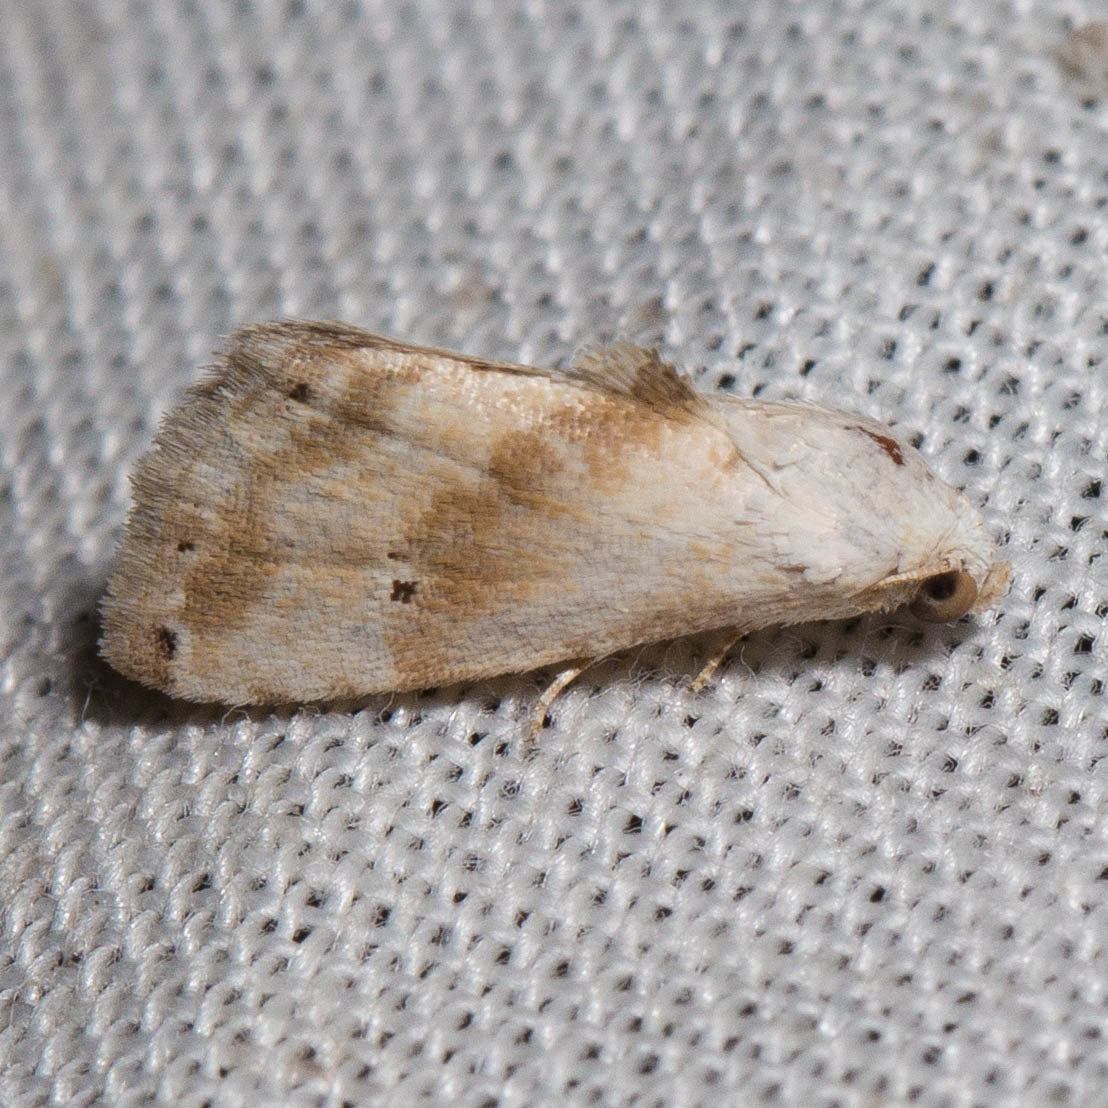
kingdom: Animalia
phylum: Arthropoda
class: Insecta
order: Lepidoptera
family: Noctuidae
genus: Eublemma
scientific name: Eublemma minima
